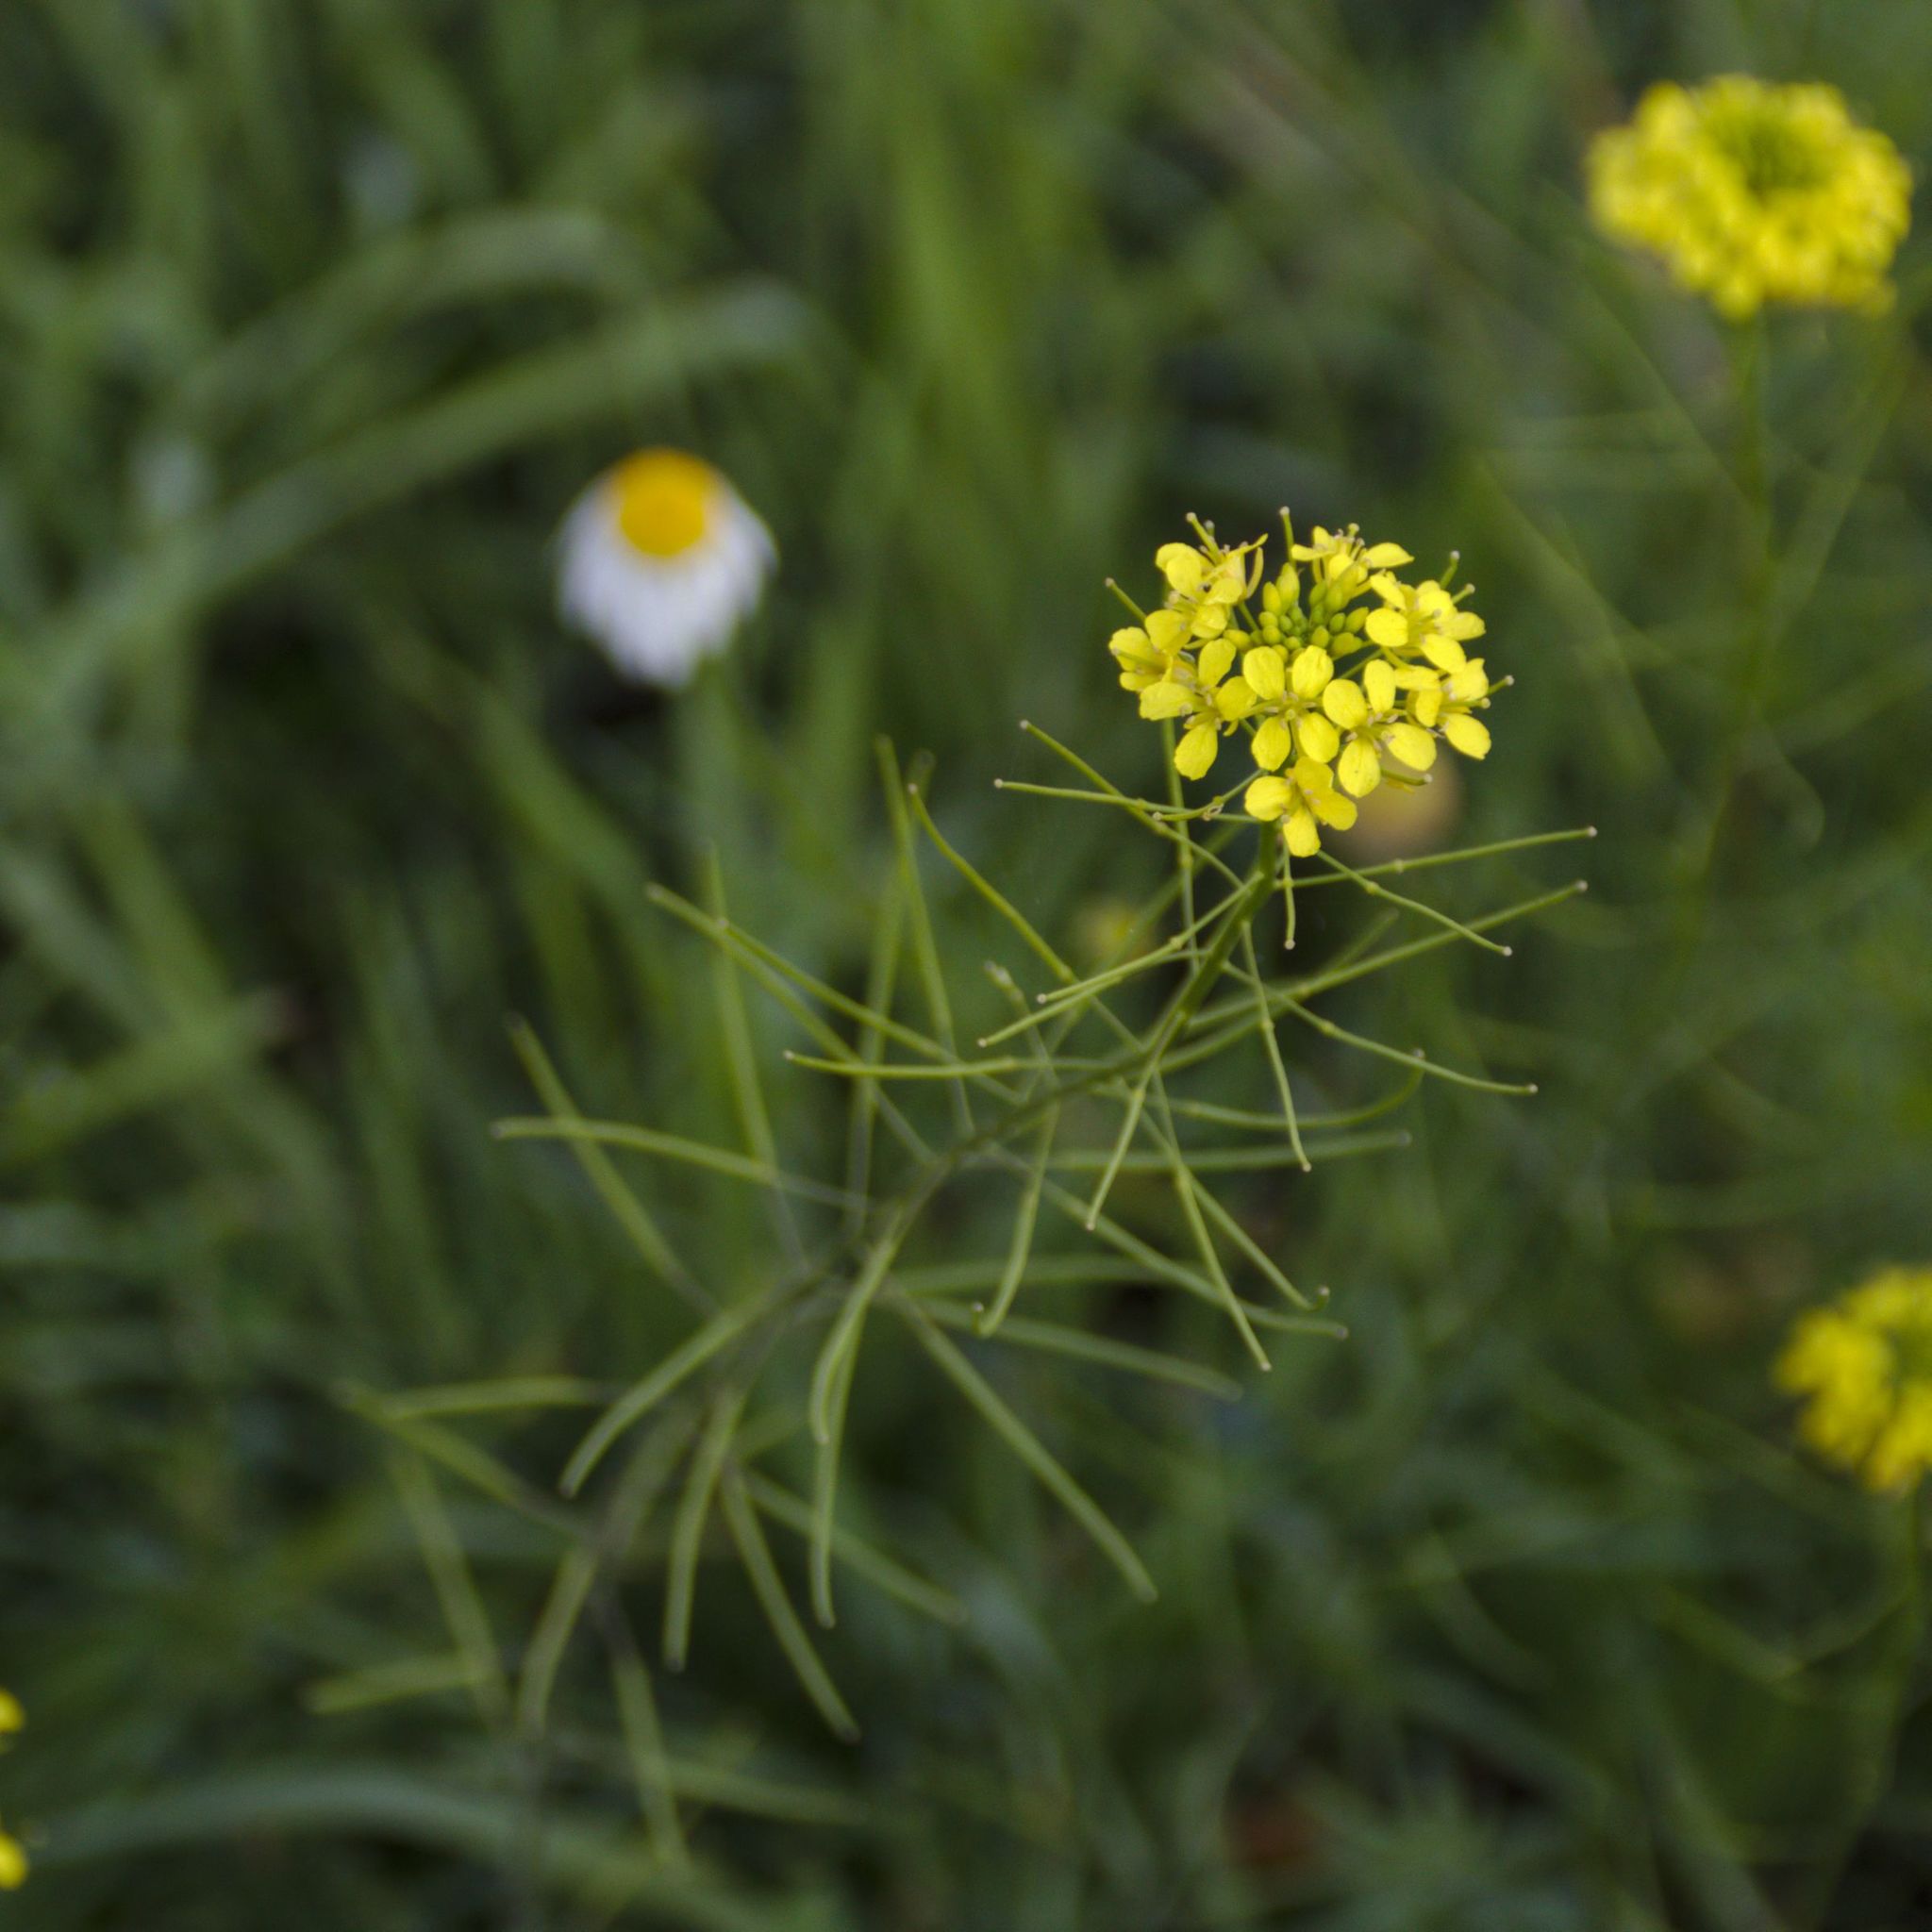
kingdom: Plantae
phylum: Tracheophyta
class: Magnoliopsida
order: Brassicales
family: Brassicaceae
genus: Sisymbrium
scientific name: Sisymbrium loeselii
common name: False london-rocket
